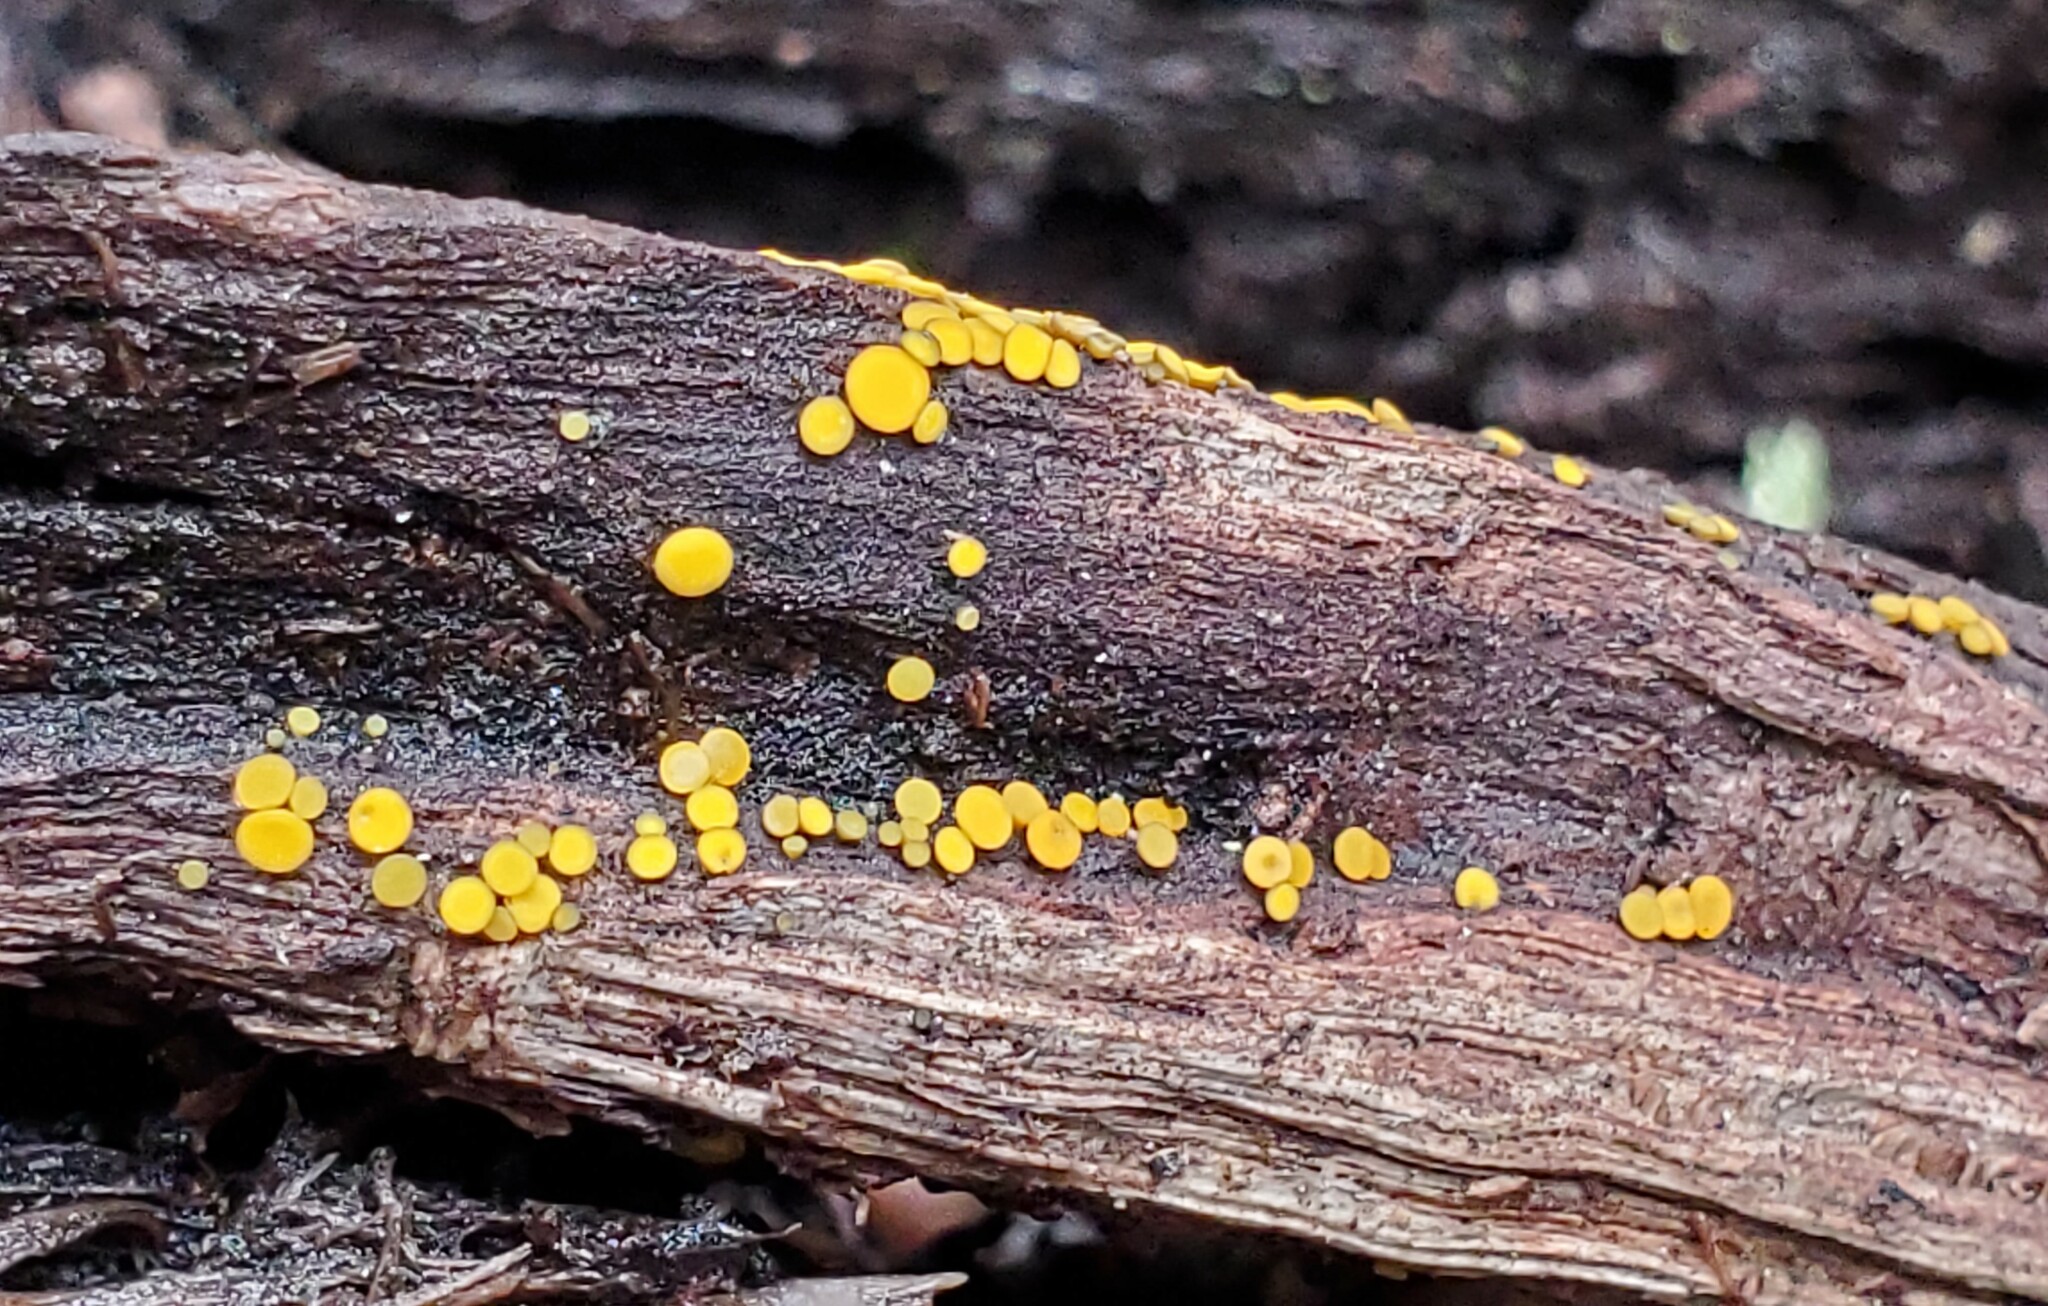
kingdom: Fungi
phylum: Ascomycota
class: Leotiomycetes
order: Helotiales
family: Pezizellaceae
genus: Calycina
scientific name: Calycina citrina
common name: Yellow fairy cups
